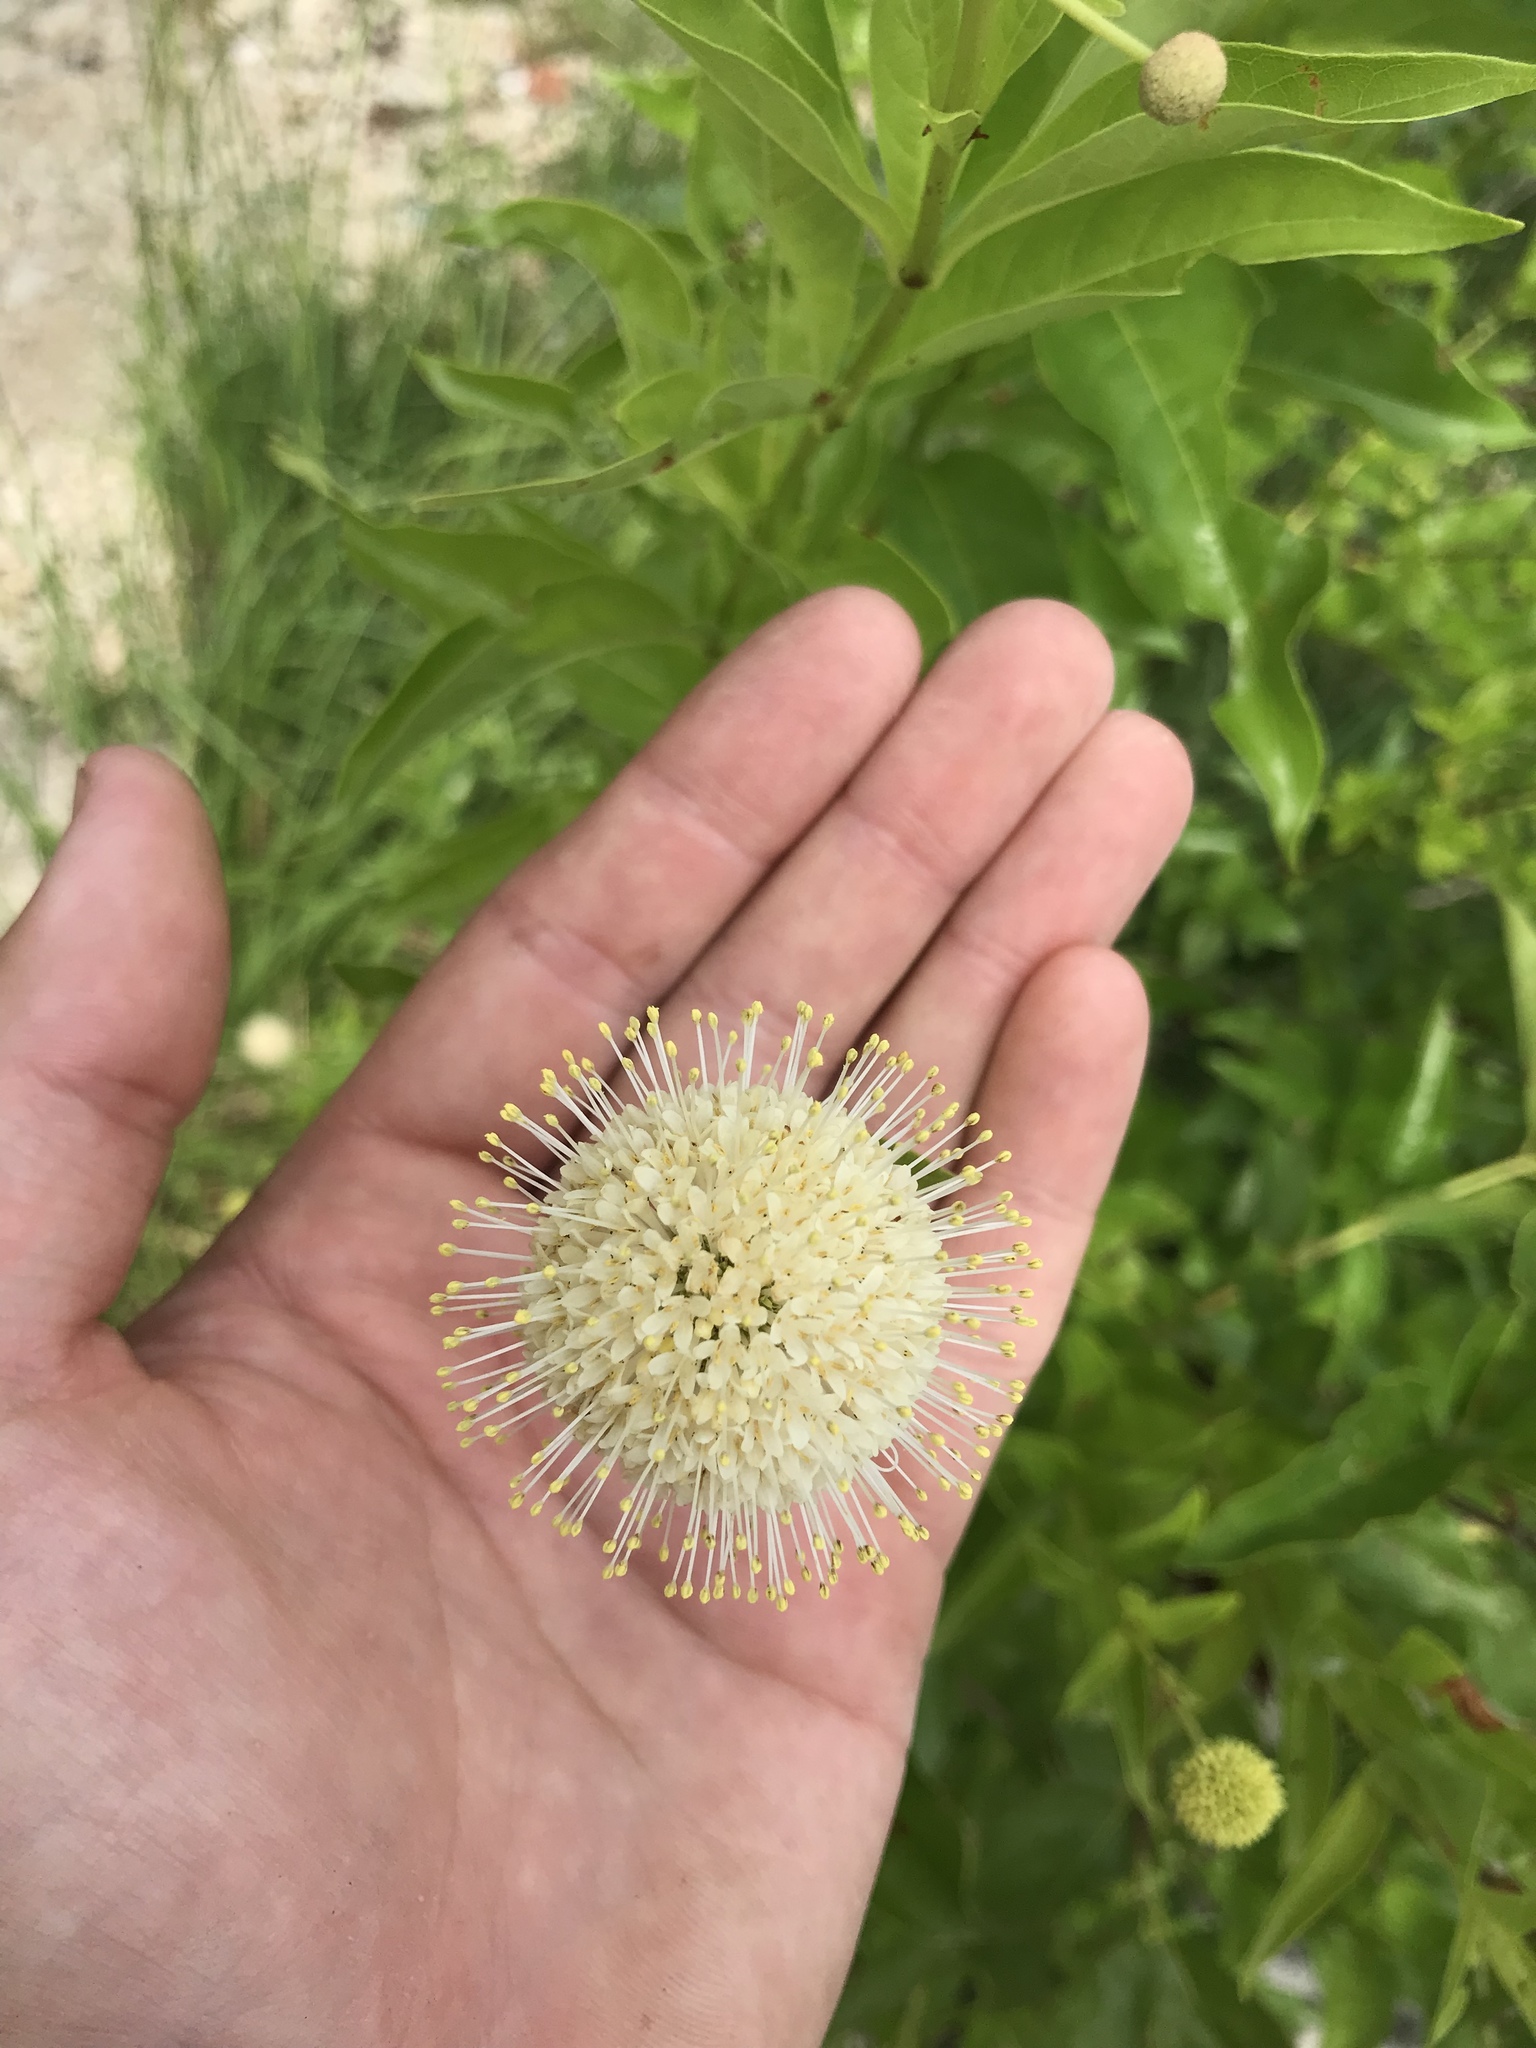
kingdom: Plantae
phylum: Tracheophyta
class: Magnoliopsida
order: Gentianales
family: Rubiaceae
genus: Cephalanthus
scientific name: Cephalanthus occidentalis
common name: Button-willow
